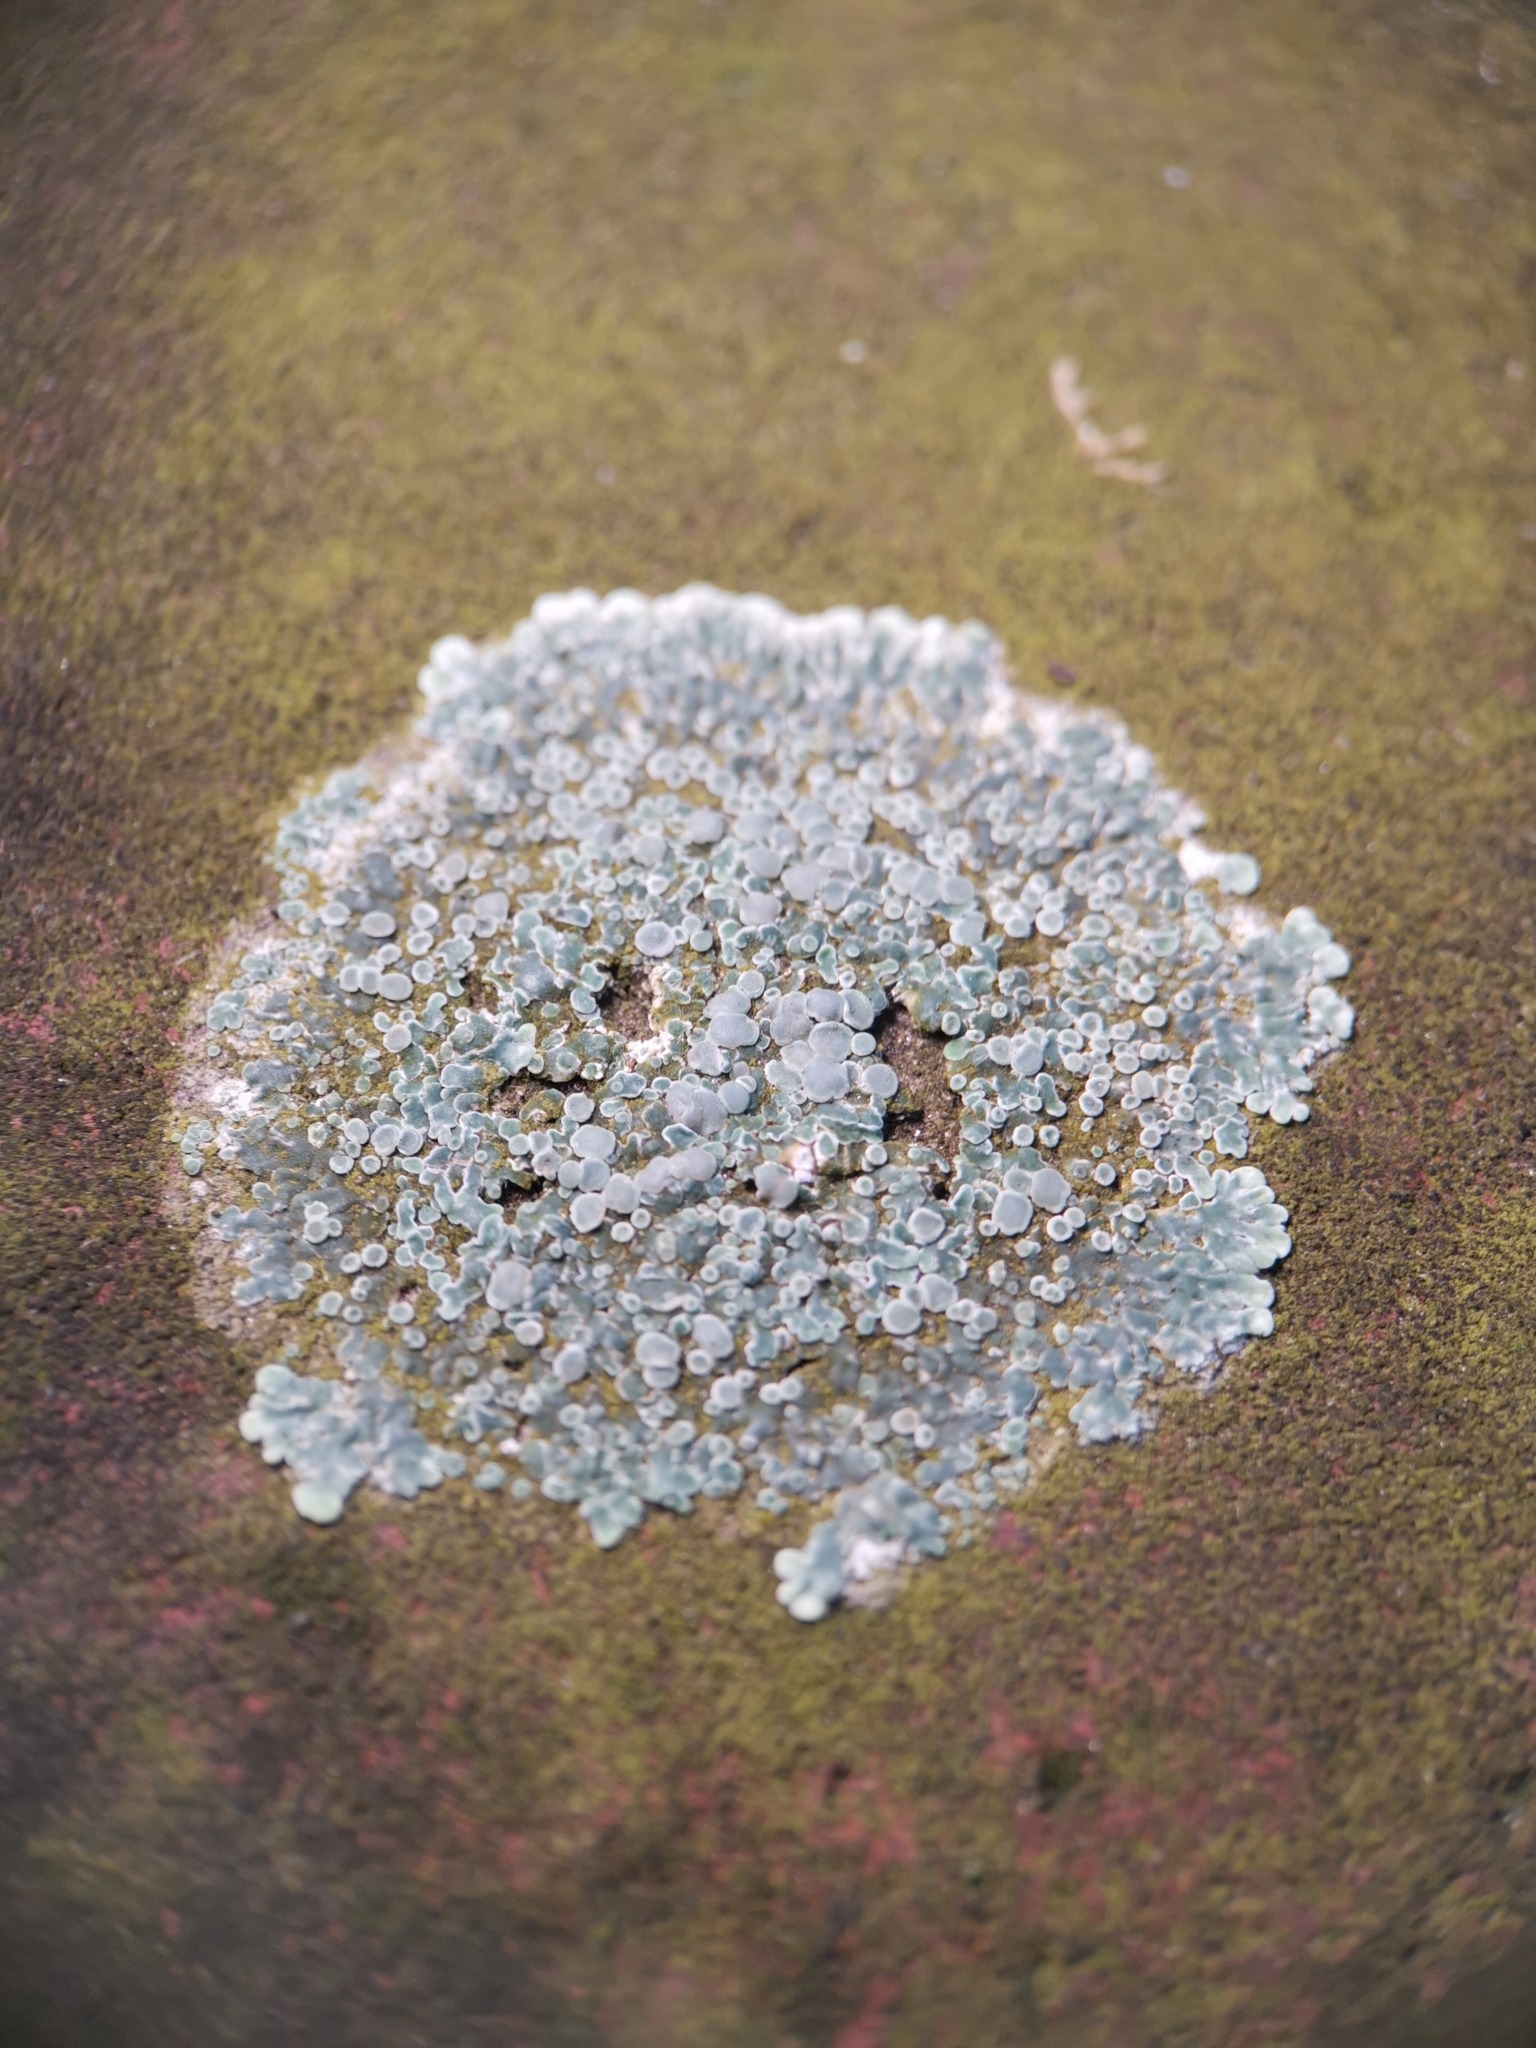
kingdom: Fungi
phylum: Ascomycota
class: Lecanoromycetes
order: Lecanorales
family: Lecanoraceae
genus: Protoparmeliopsis
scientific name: Protoparmeliopsis muralis
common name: Stonewall rim lichen
